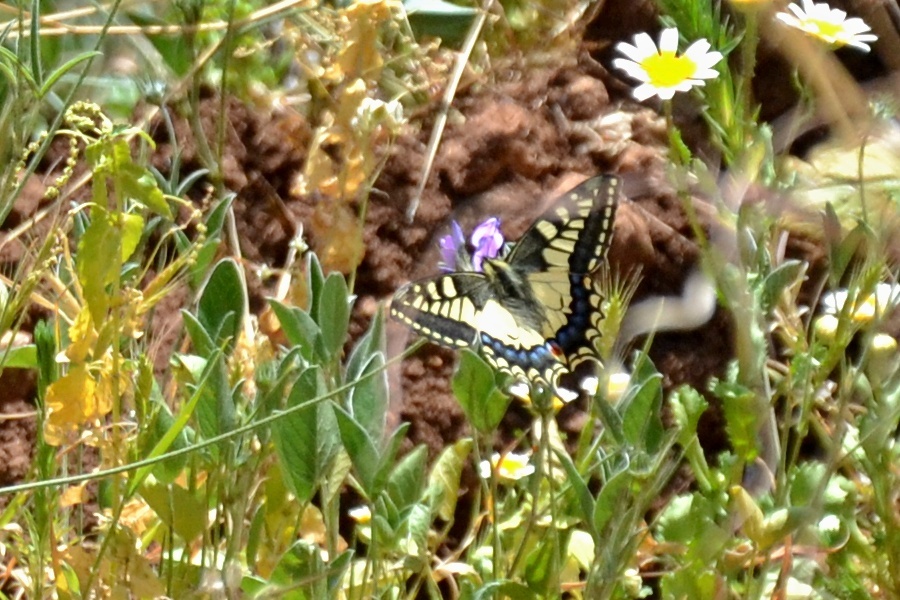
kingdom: Animalia
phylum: Arthropoda
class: Insecta
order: Lepidoptera
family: Papilionidae
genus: Papilio
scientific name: Papilio machaon
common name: Swallowtail
